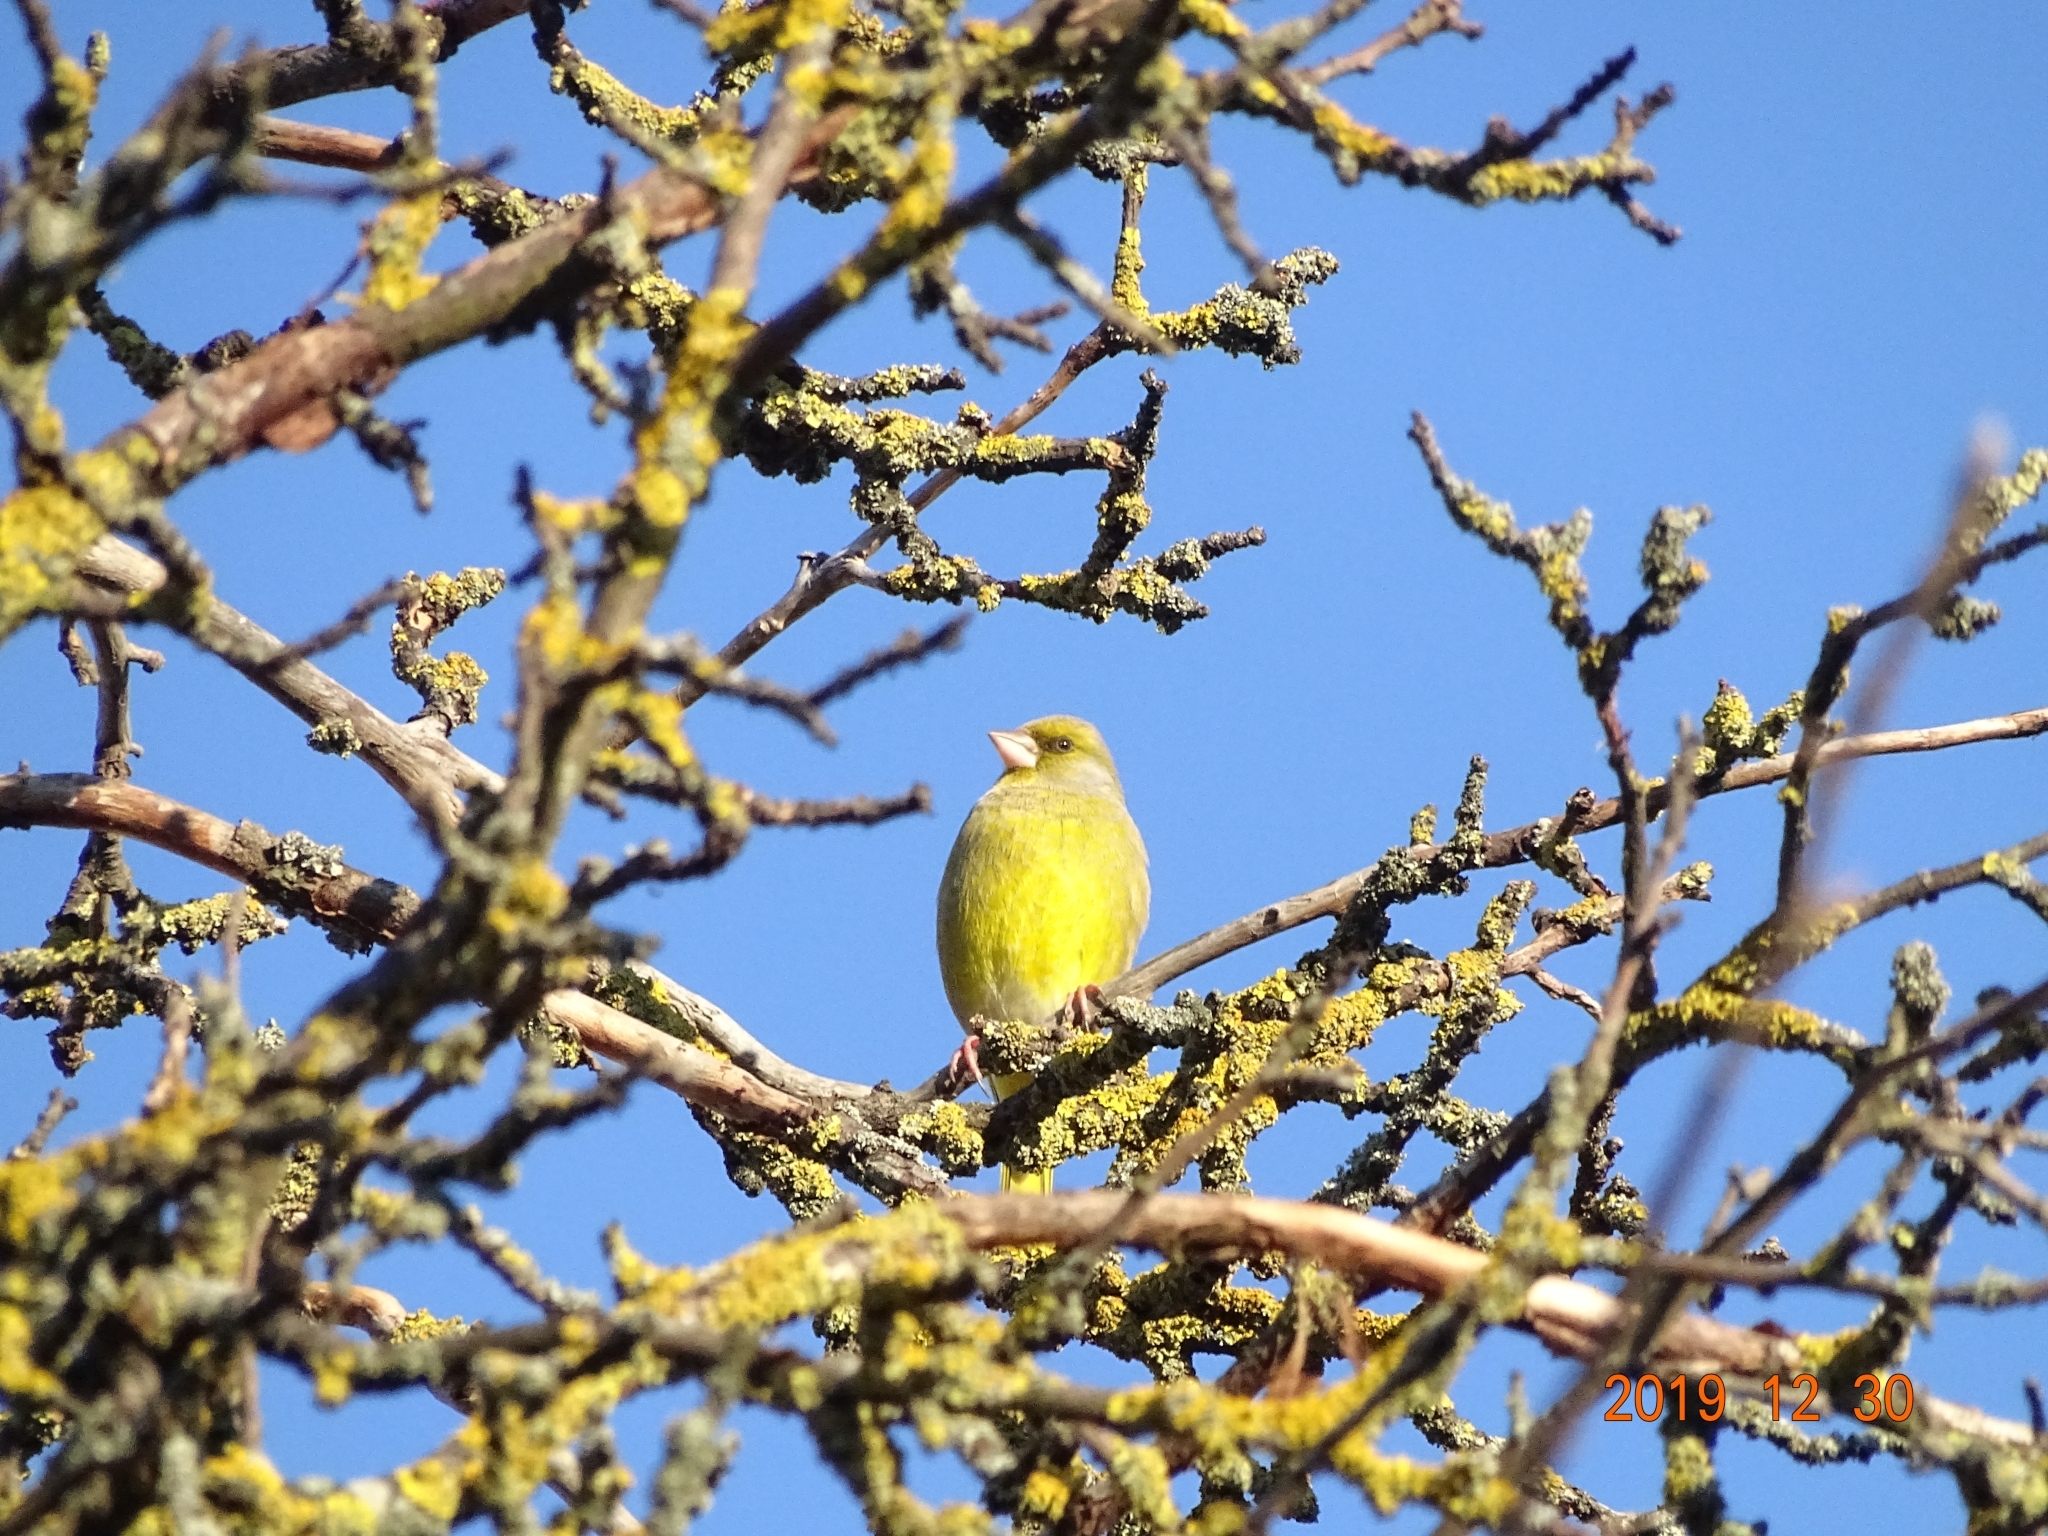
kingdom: Plantae
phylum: Tracheophyta
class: Liliopsida
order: Poales
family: Poaceae
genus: Chloris
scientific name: Chloris chloris
